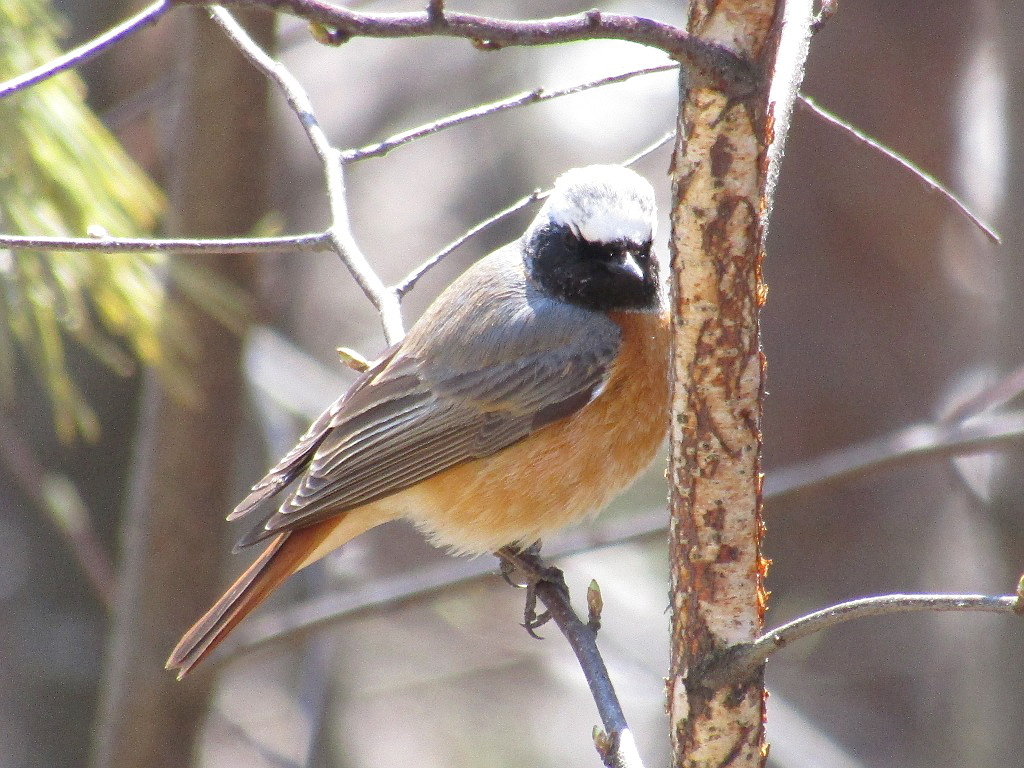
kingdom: Animalia
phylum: Chordata
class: Aves
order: Passeriformes
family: Muscicapidae
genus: Phoenicurus
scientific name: Phoenicurus phoenicurus
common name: Common redstart
